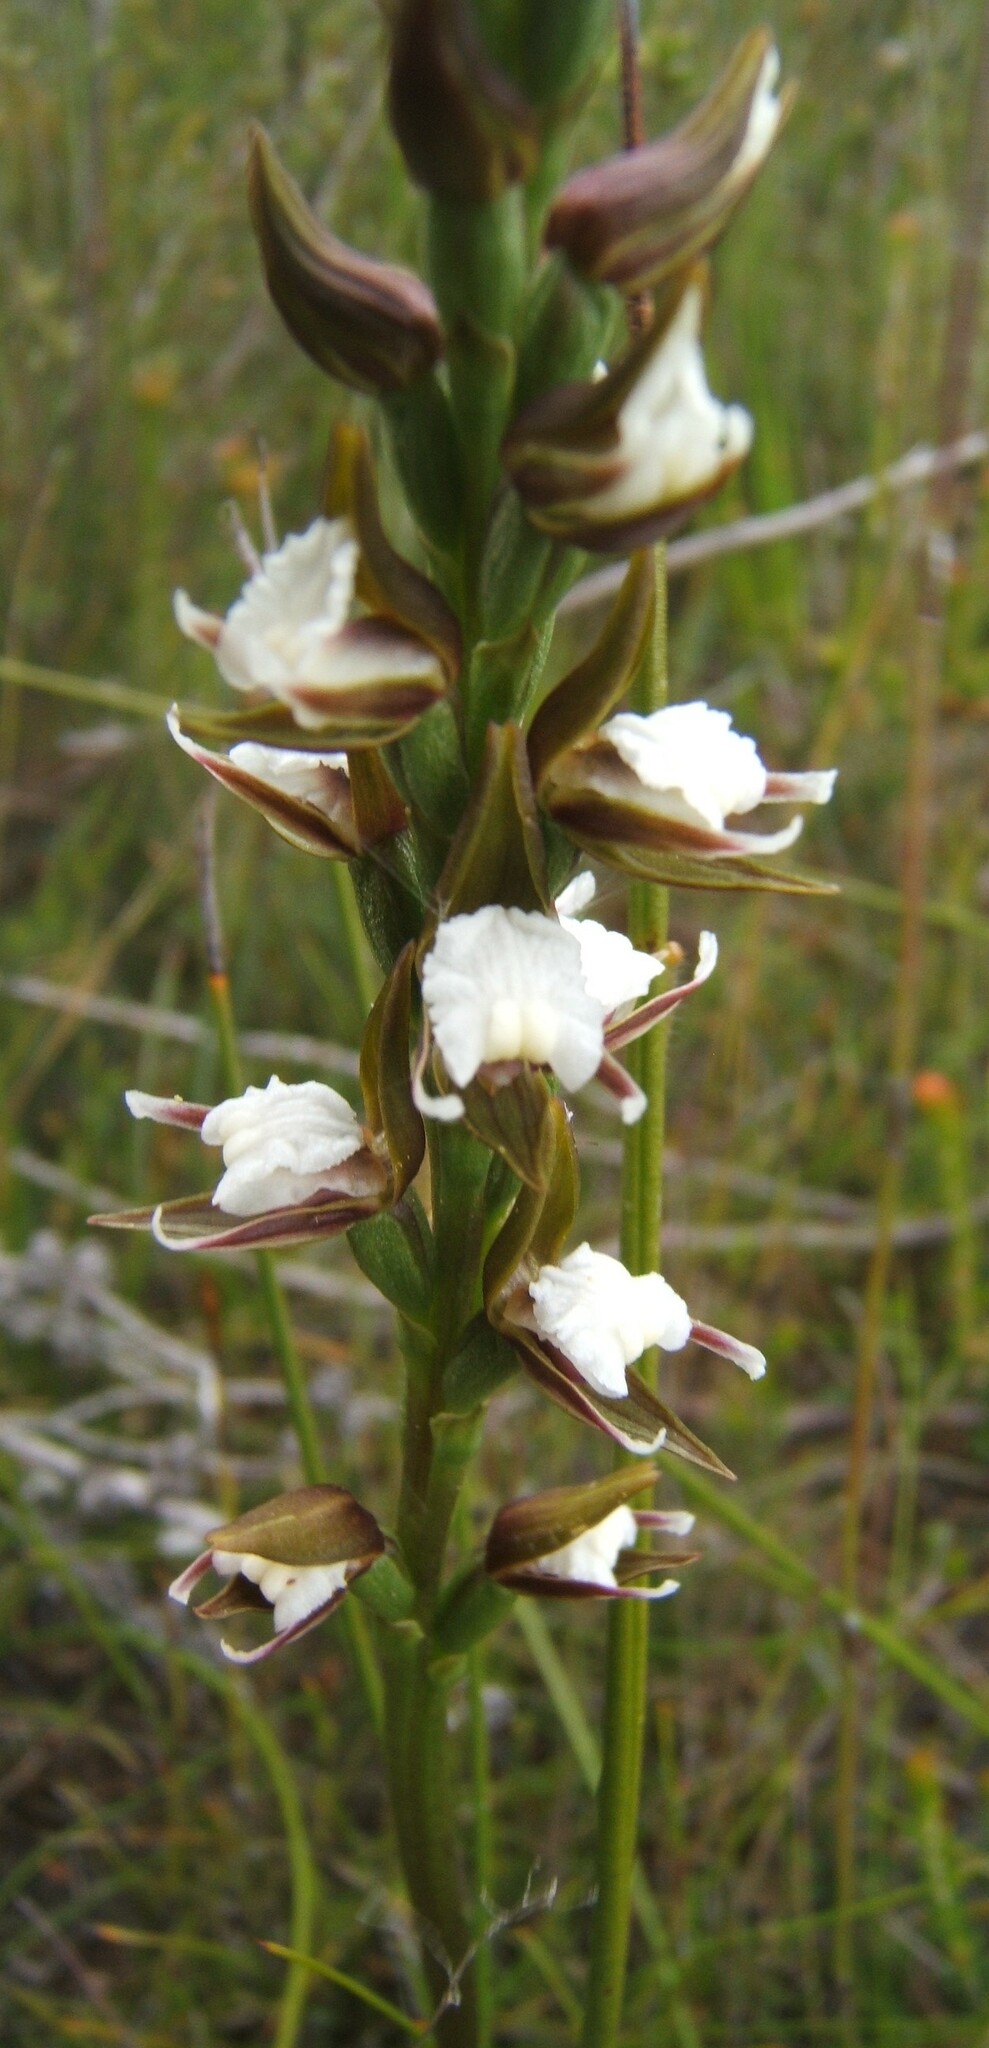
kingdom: Plantae
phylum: Tracheophyta
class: Liliopsida
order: Asparagales
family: Orchidaceae
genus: Prasophyllum
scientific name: Prasophyllum brevilabre
